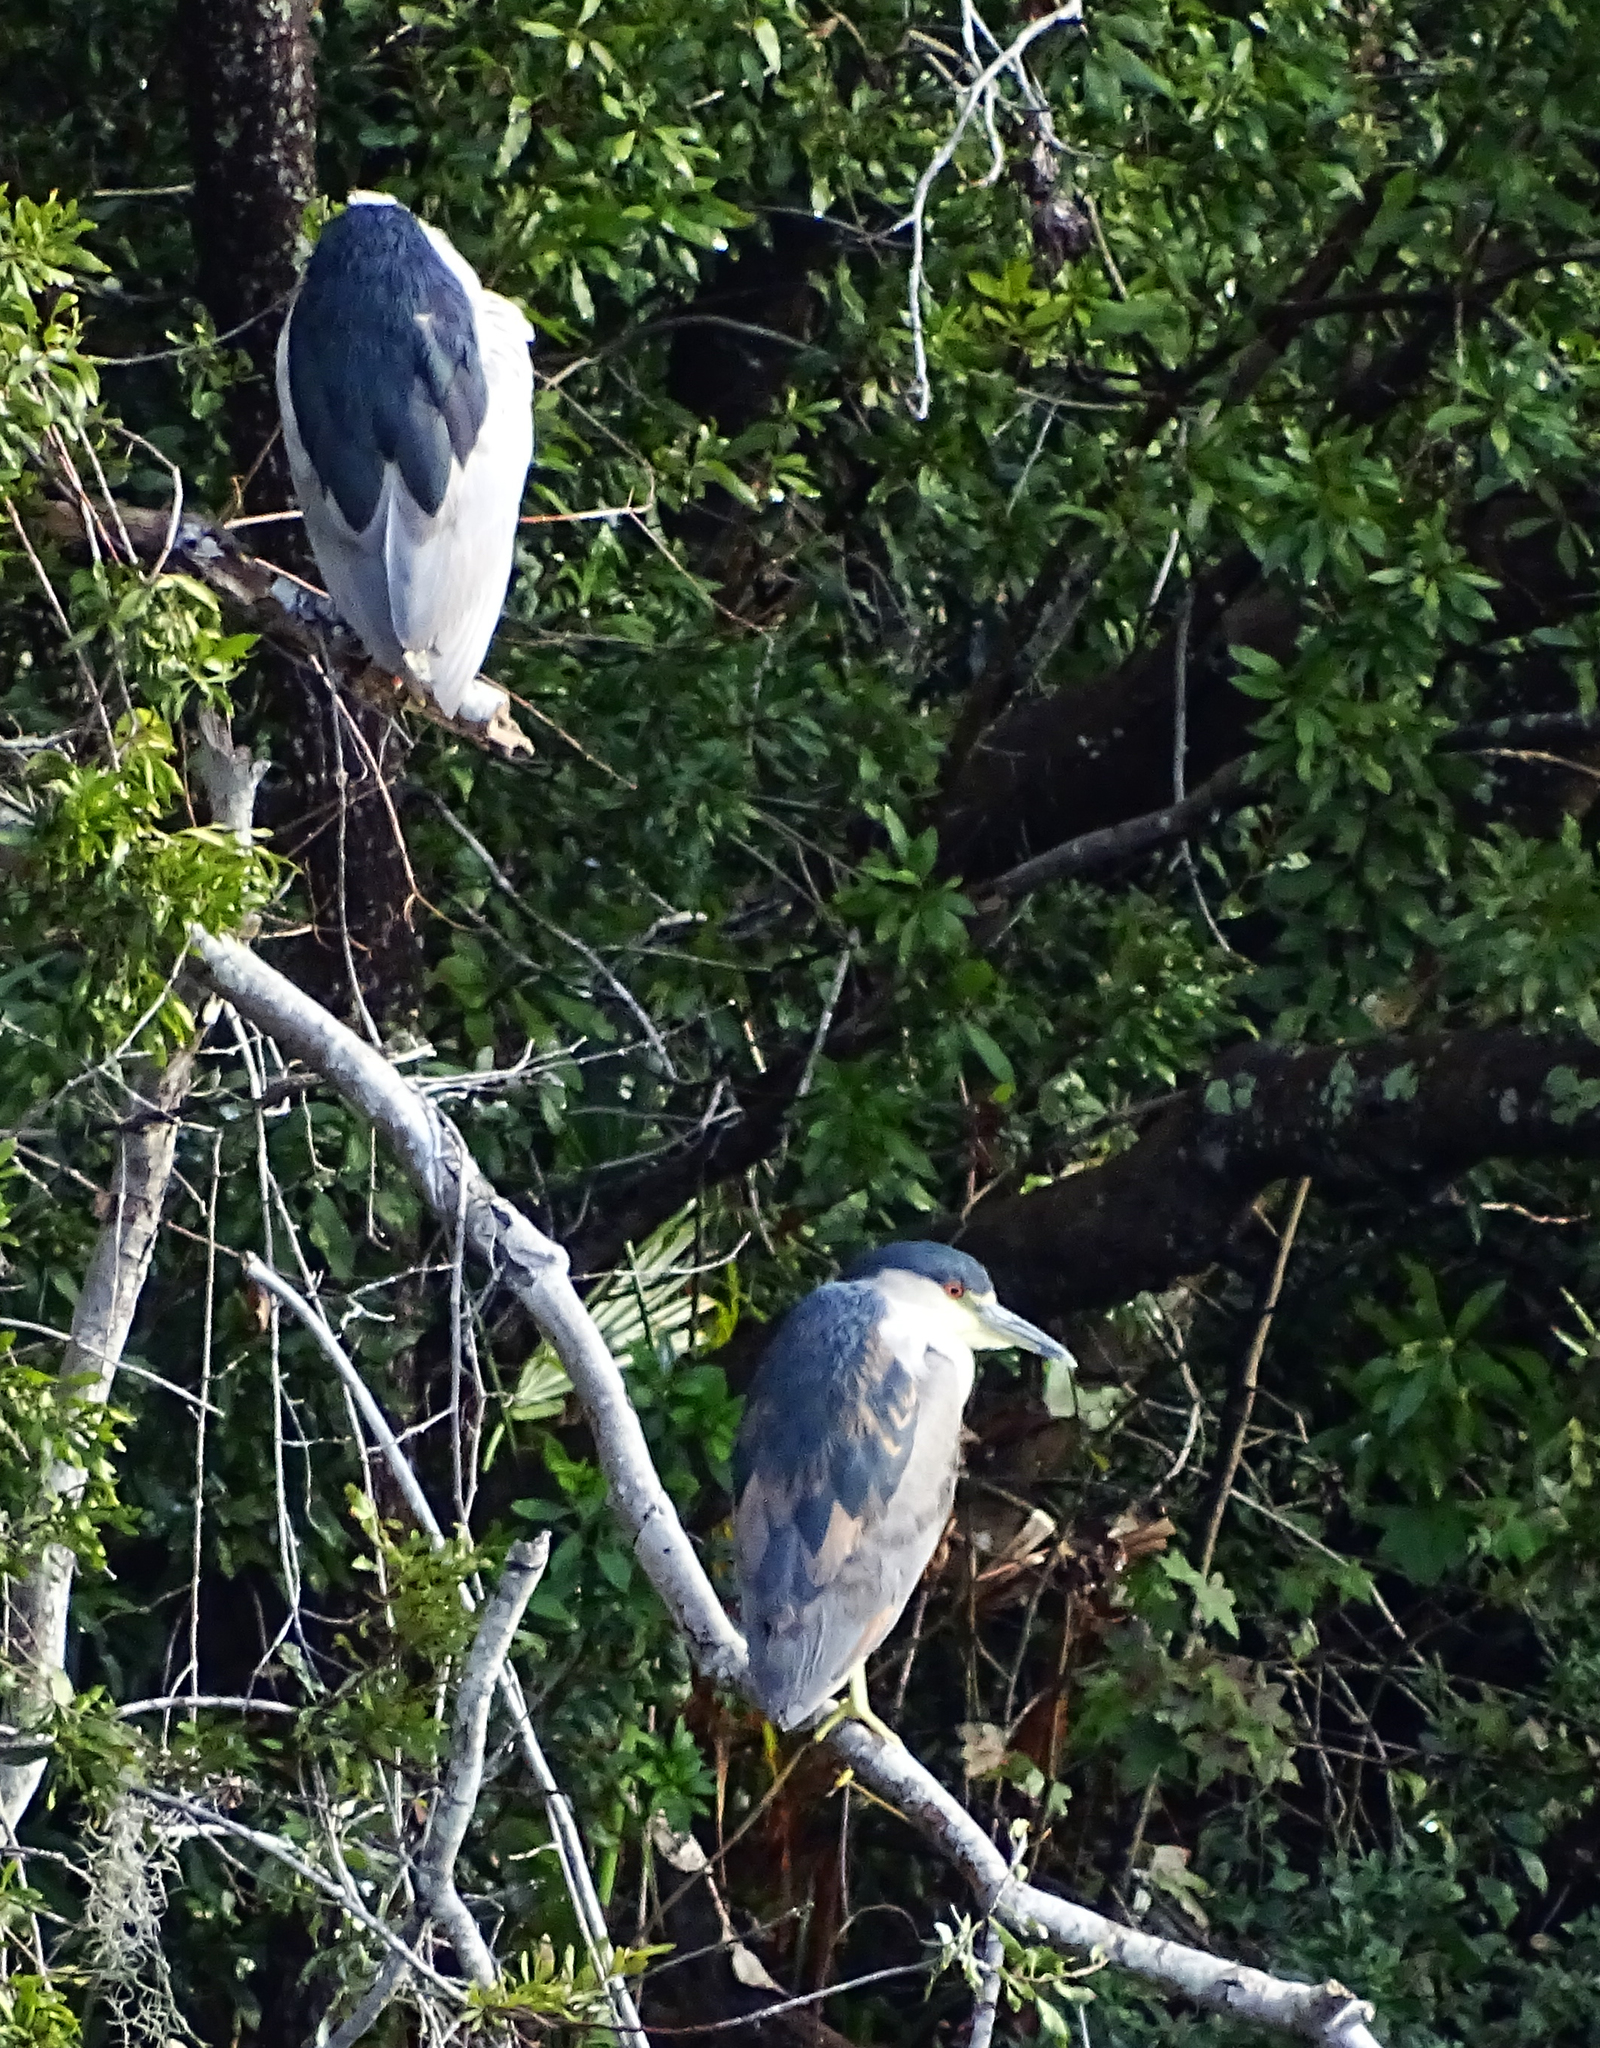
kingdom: Animalia
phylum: Chordata
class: Aves
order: Pelecaniformes
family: Ardeidae
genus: Nycticorax
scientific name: Nycticorax nycticorax
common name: Black-crowned night heron
